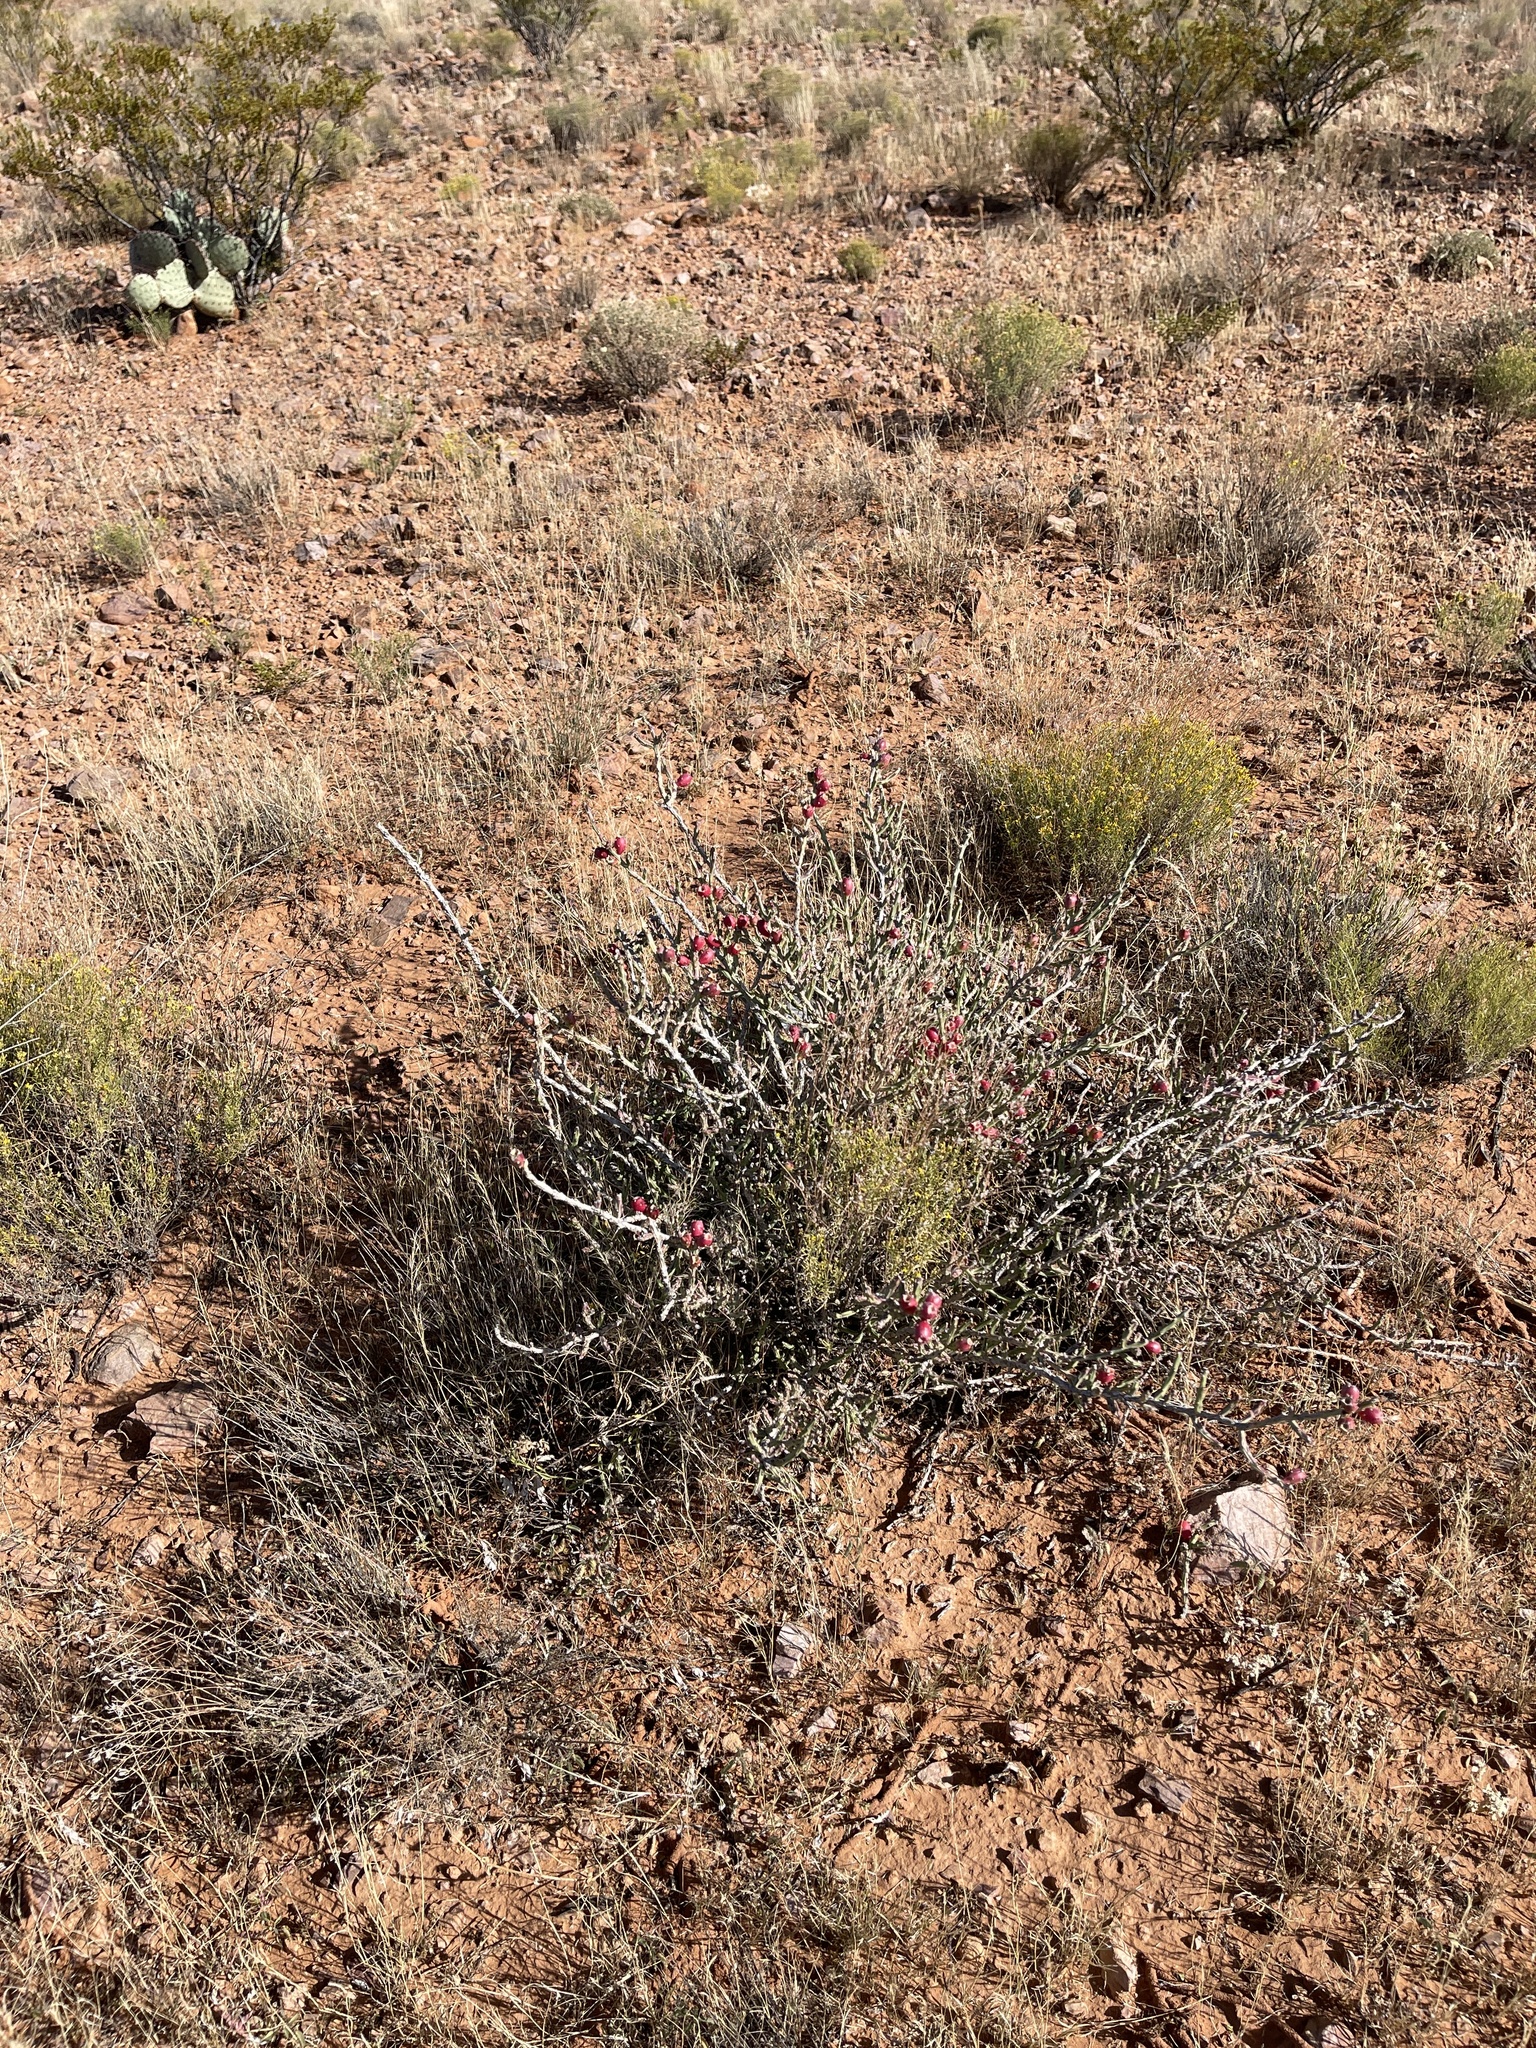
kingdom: Plantae
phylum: Tracheophyta
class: Magnoliopsida
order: Caryophyllales
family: Cactaceae
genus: Cylindropuntia
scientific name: Cylindropuntia leptocaulis
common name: Christmas cactus
